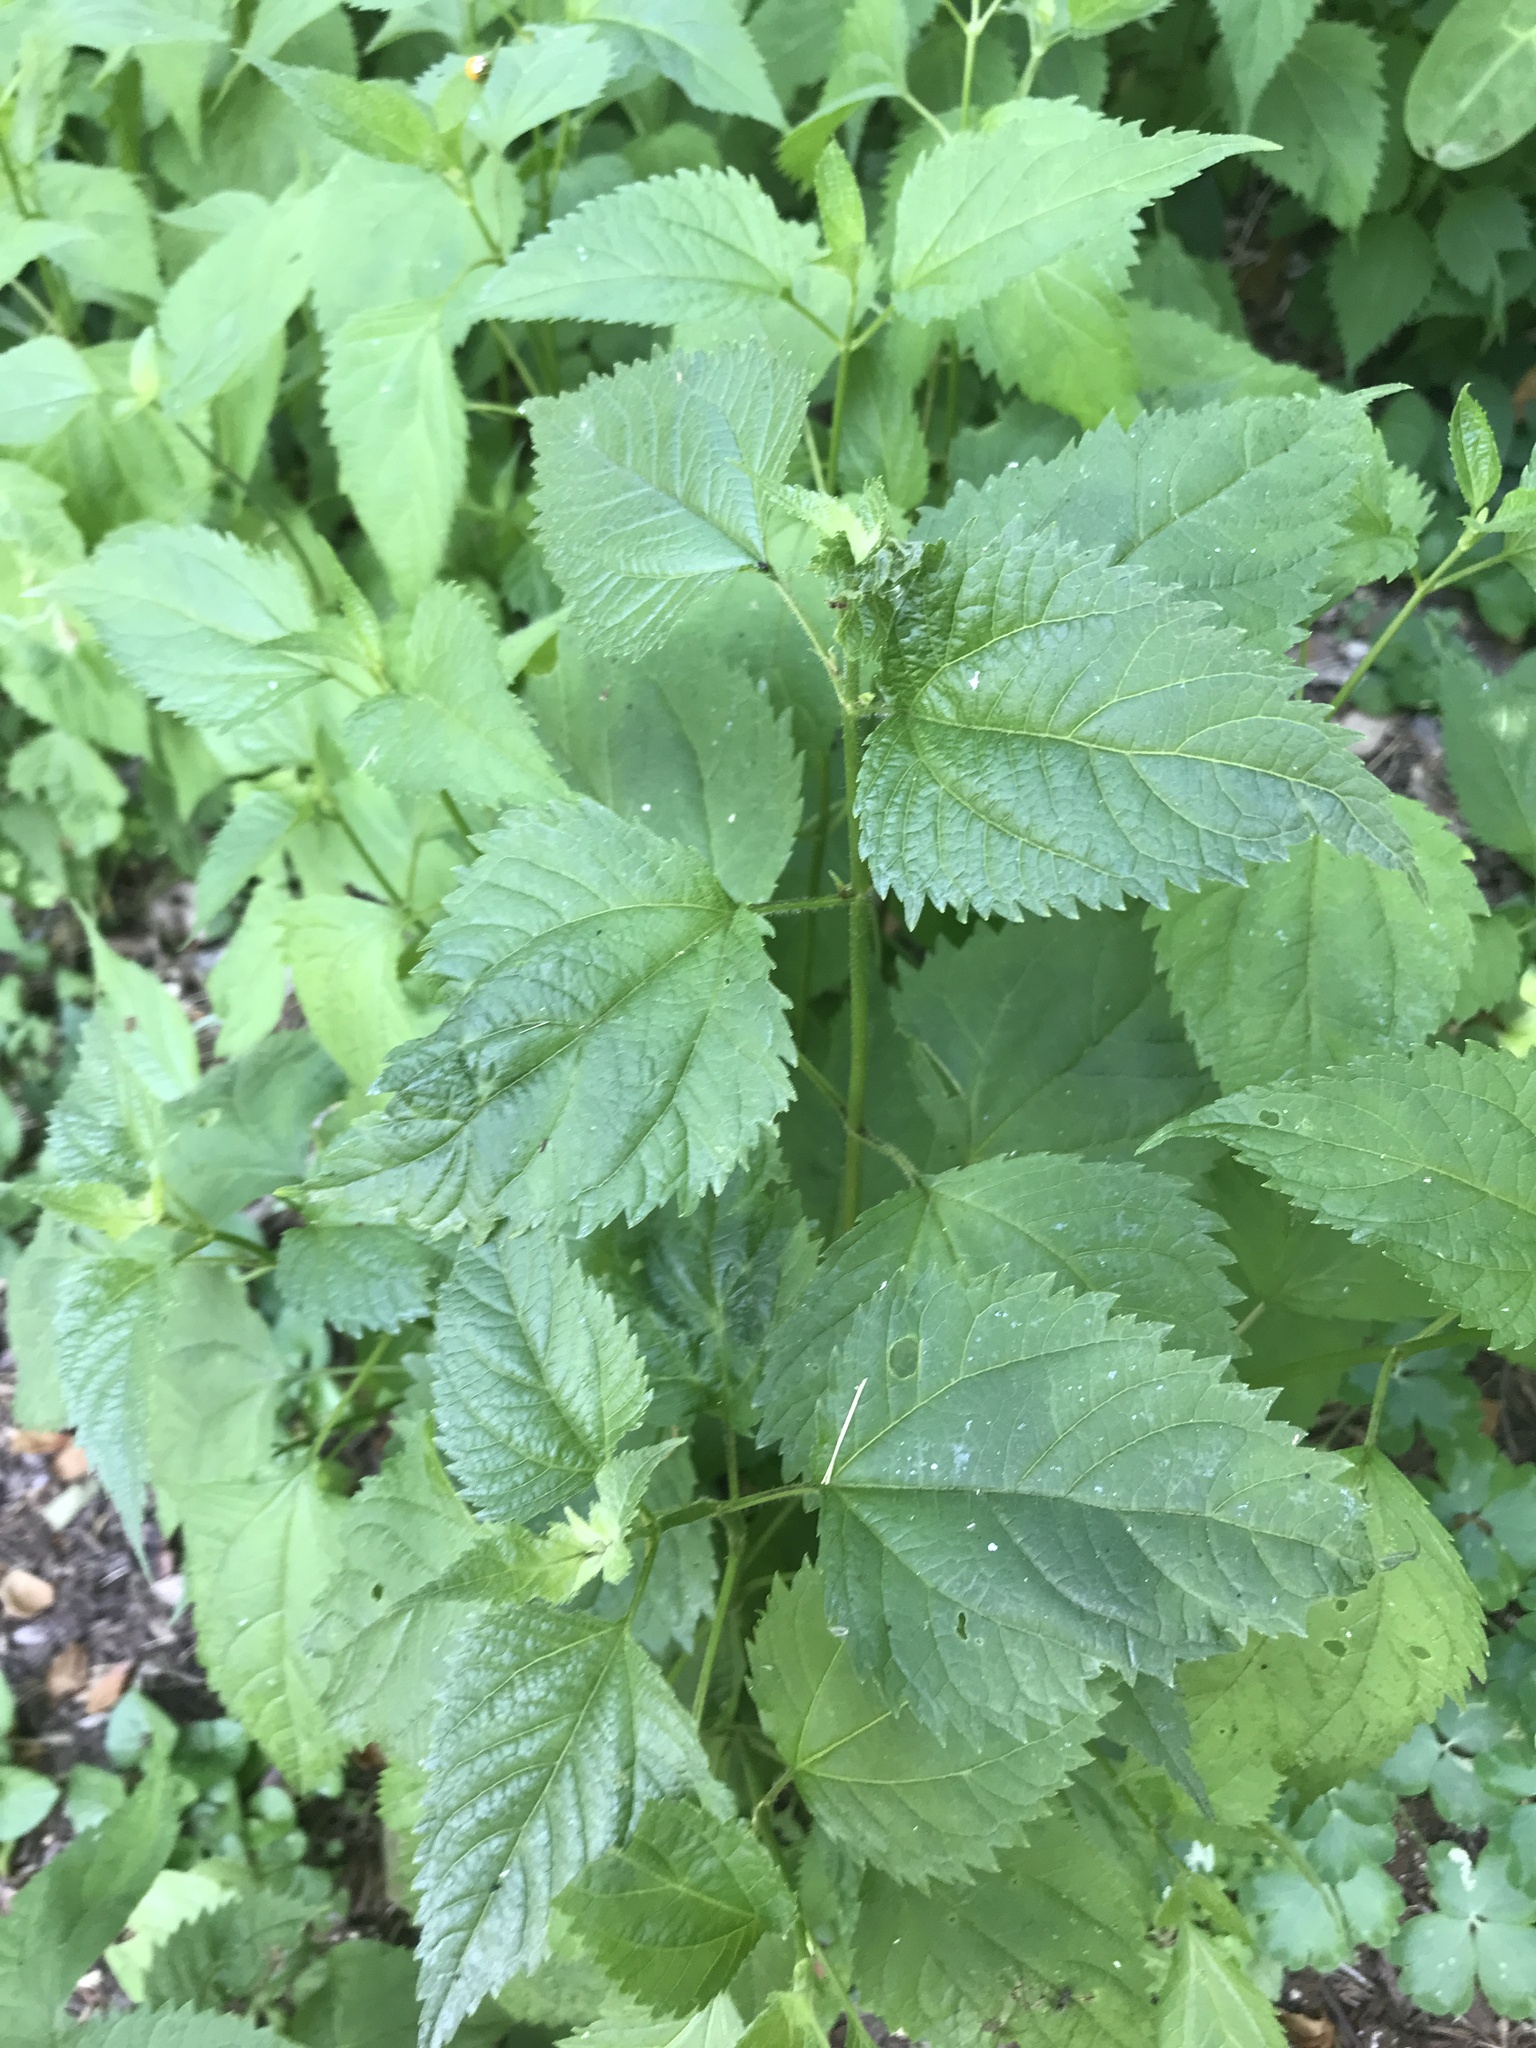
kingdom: Plantae
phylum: Tracheophyta
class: Magnoliopsida
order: Asterales
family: Asteraceae
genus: Ageratina
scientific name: Ageratina altissima
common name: White snakeroot
